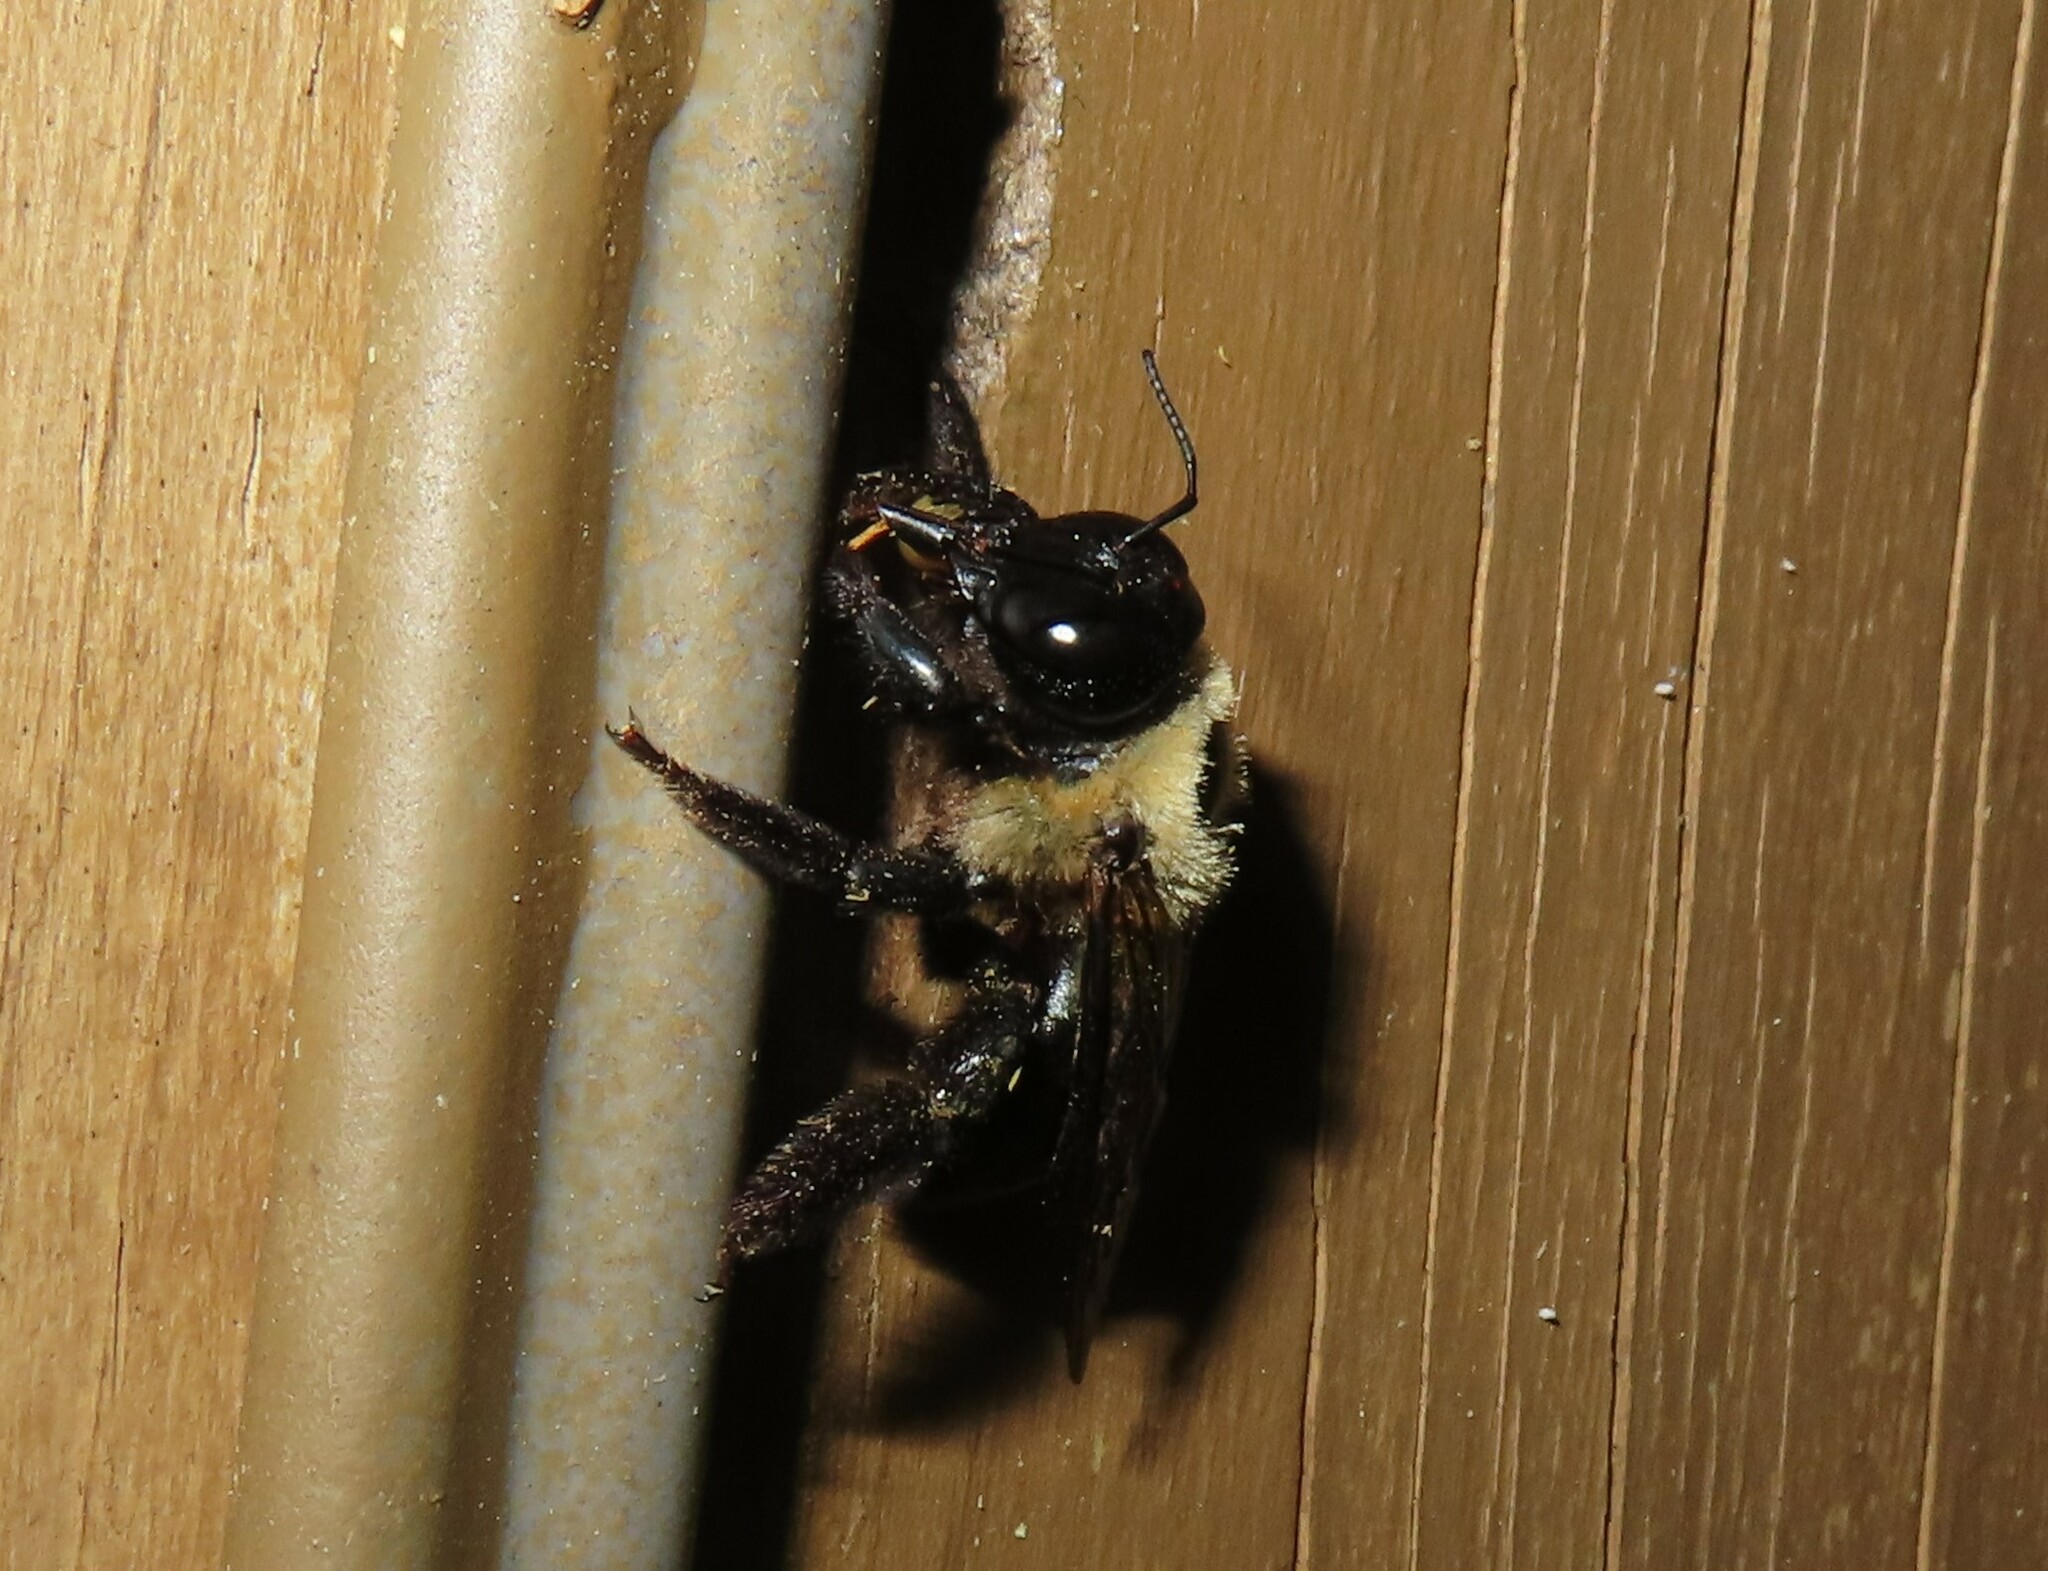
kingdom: Animalia
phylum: Arthropoda
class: Insecta
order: Hymenoptera
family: Apidae
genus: Xylocopa
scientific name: Xylocopa virginica
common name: Carpenter bee
